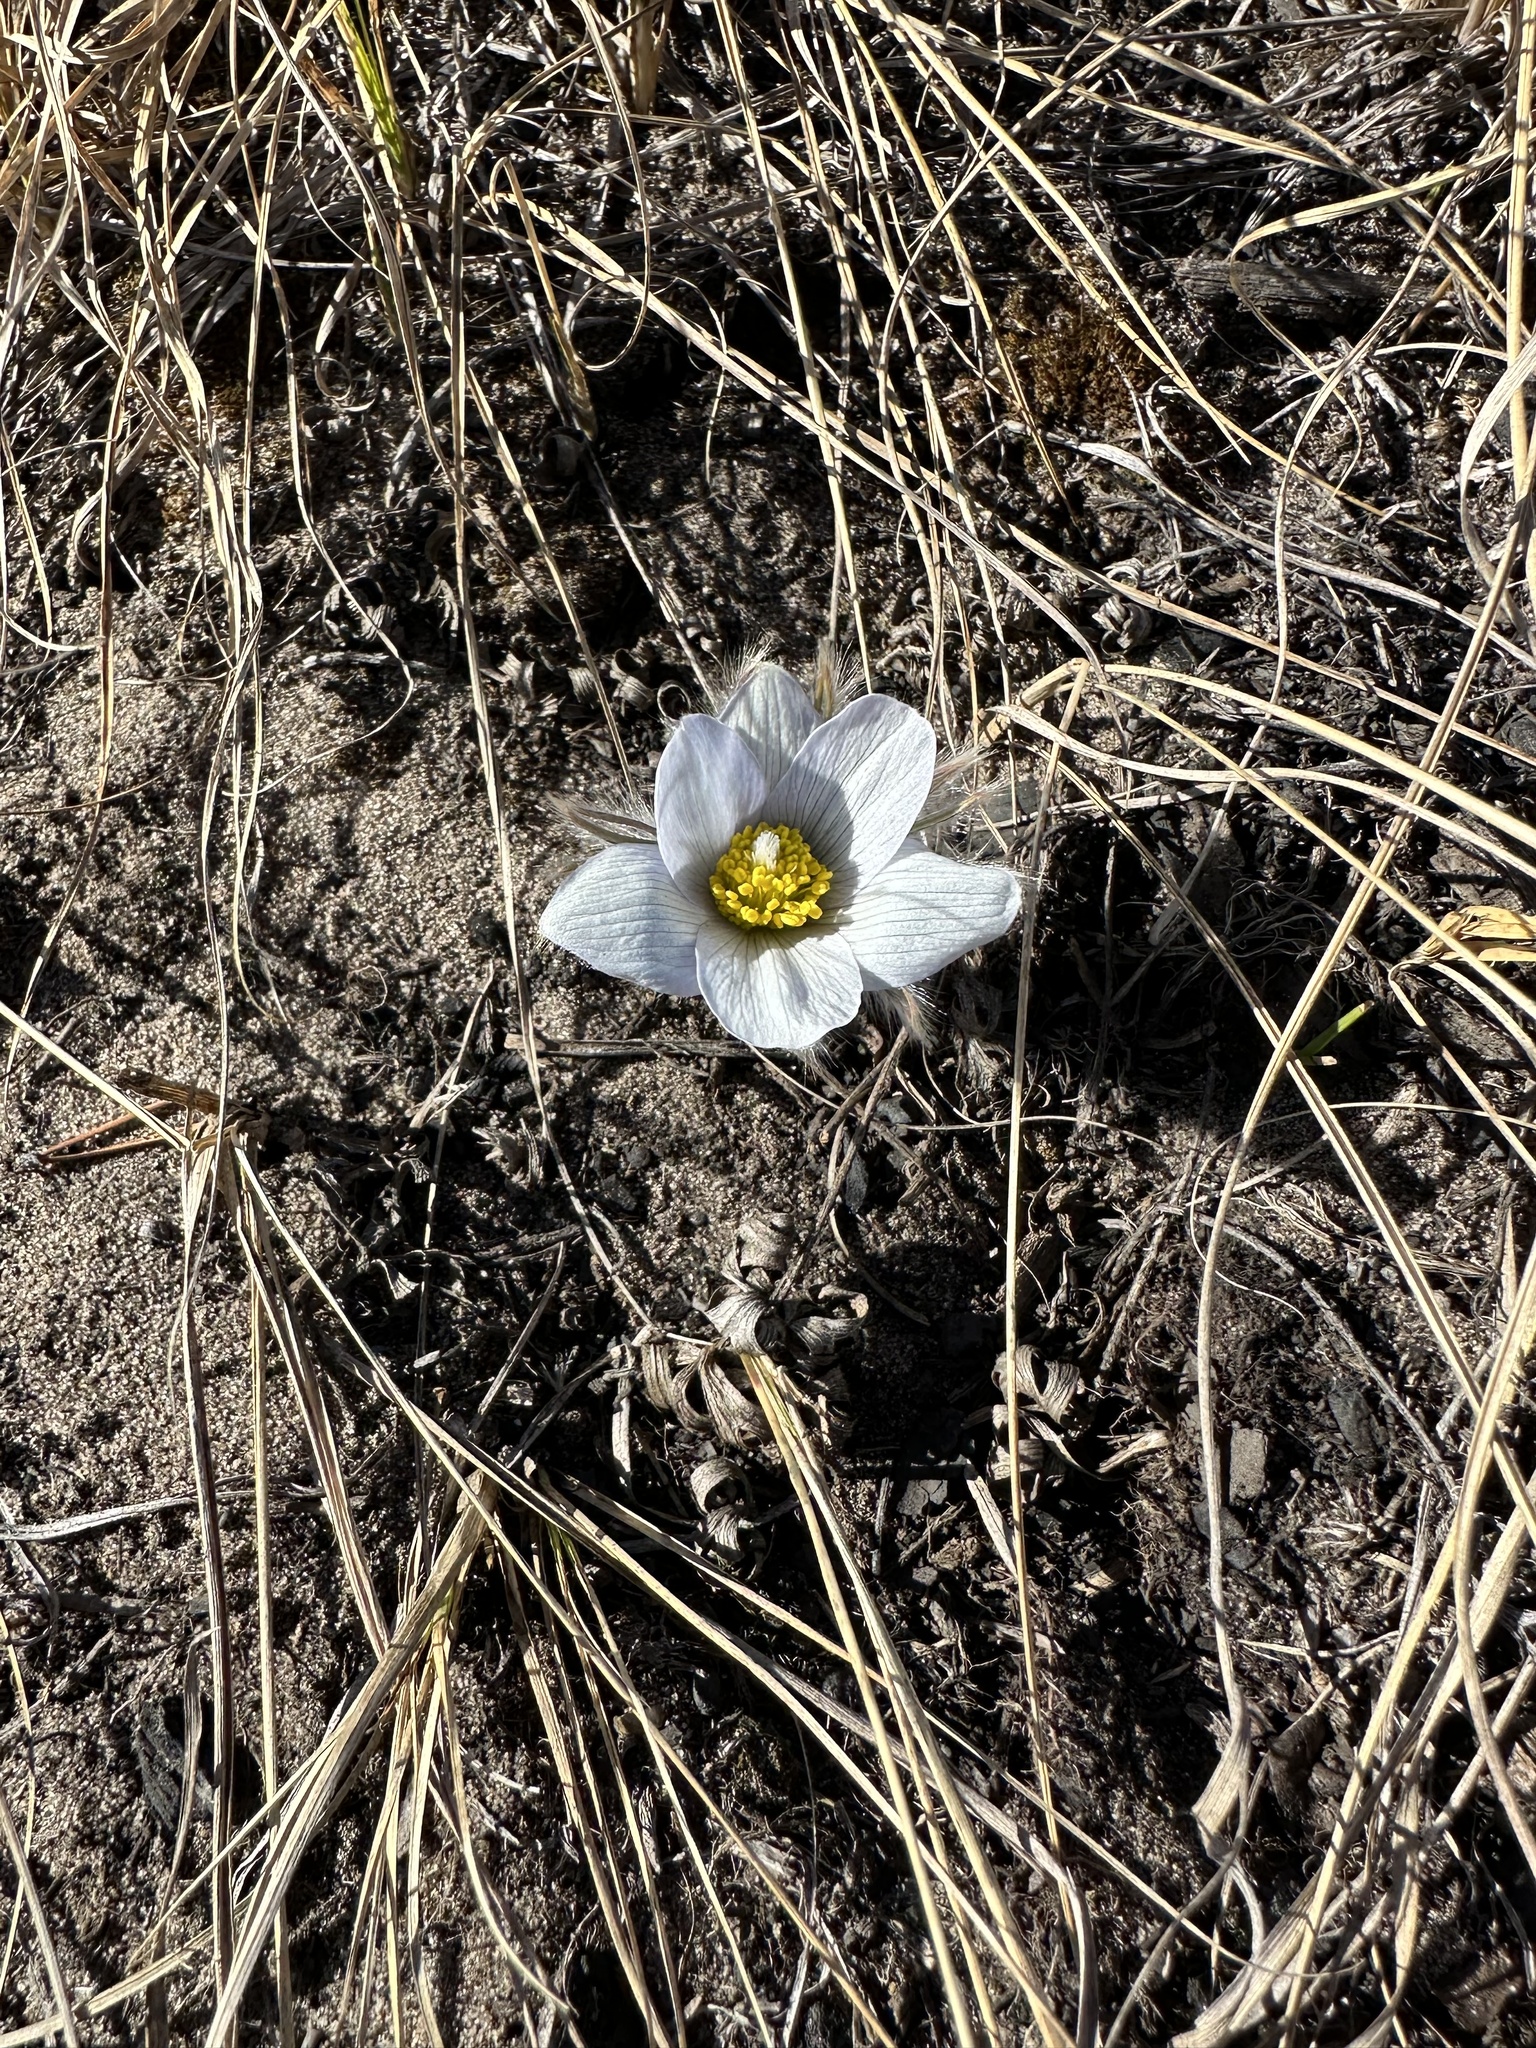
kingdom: Plantae
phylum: Tracheophyta
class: Magnoliopsida
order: Ranunculales
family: Ranunculaceae
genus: Pulsatilla
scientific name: Pulsatilla nuttalliana
